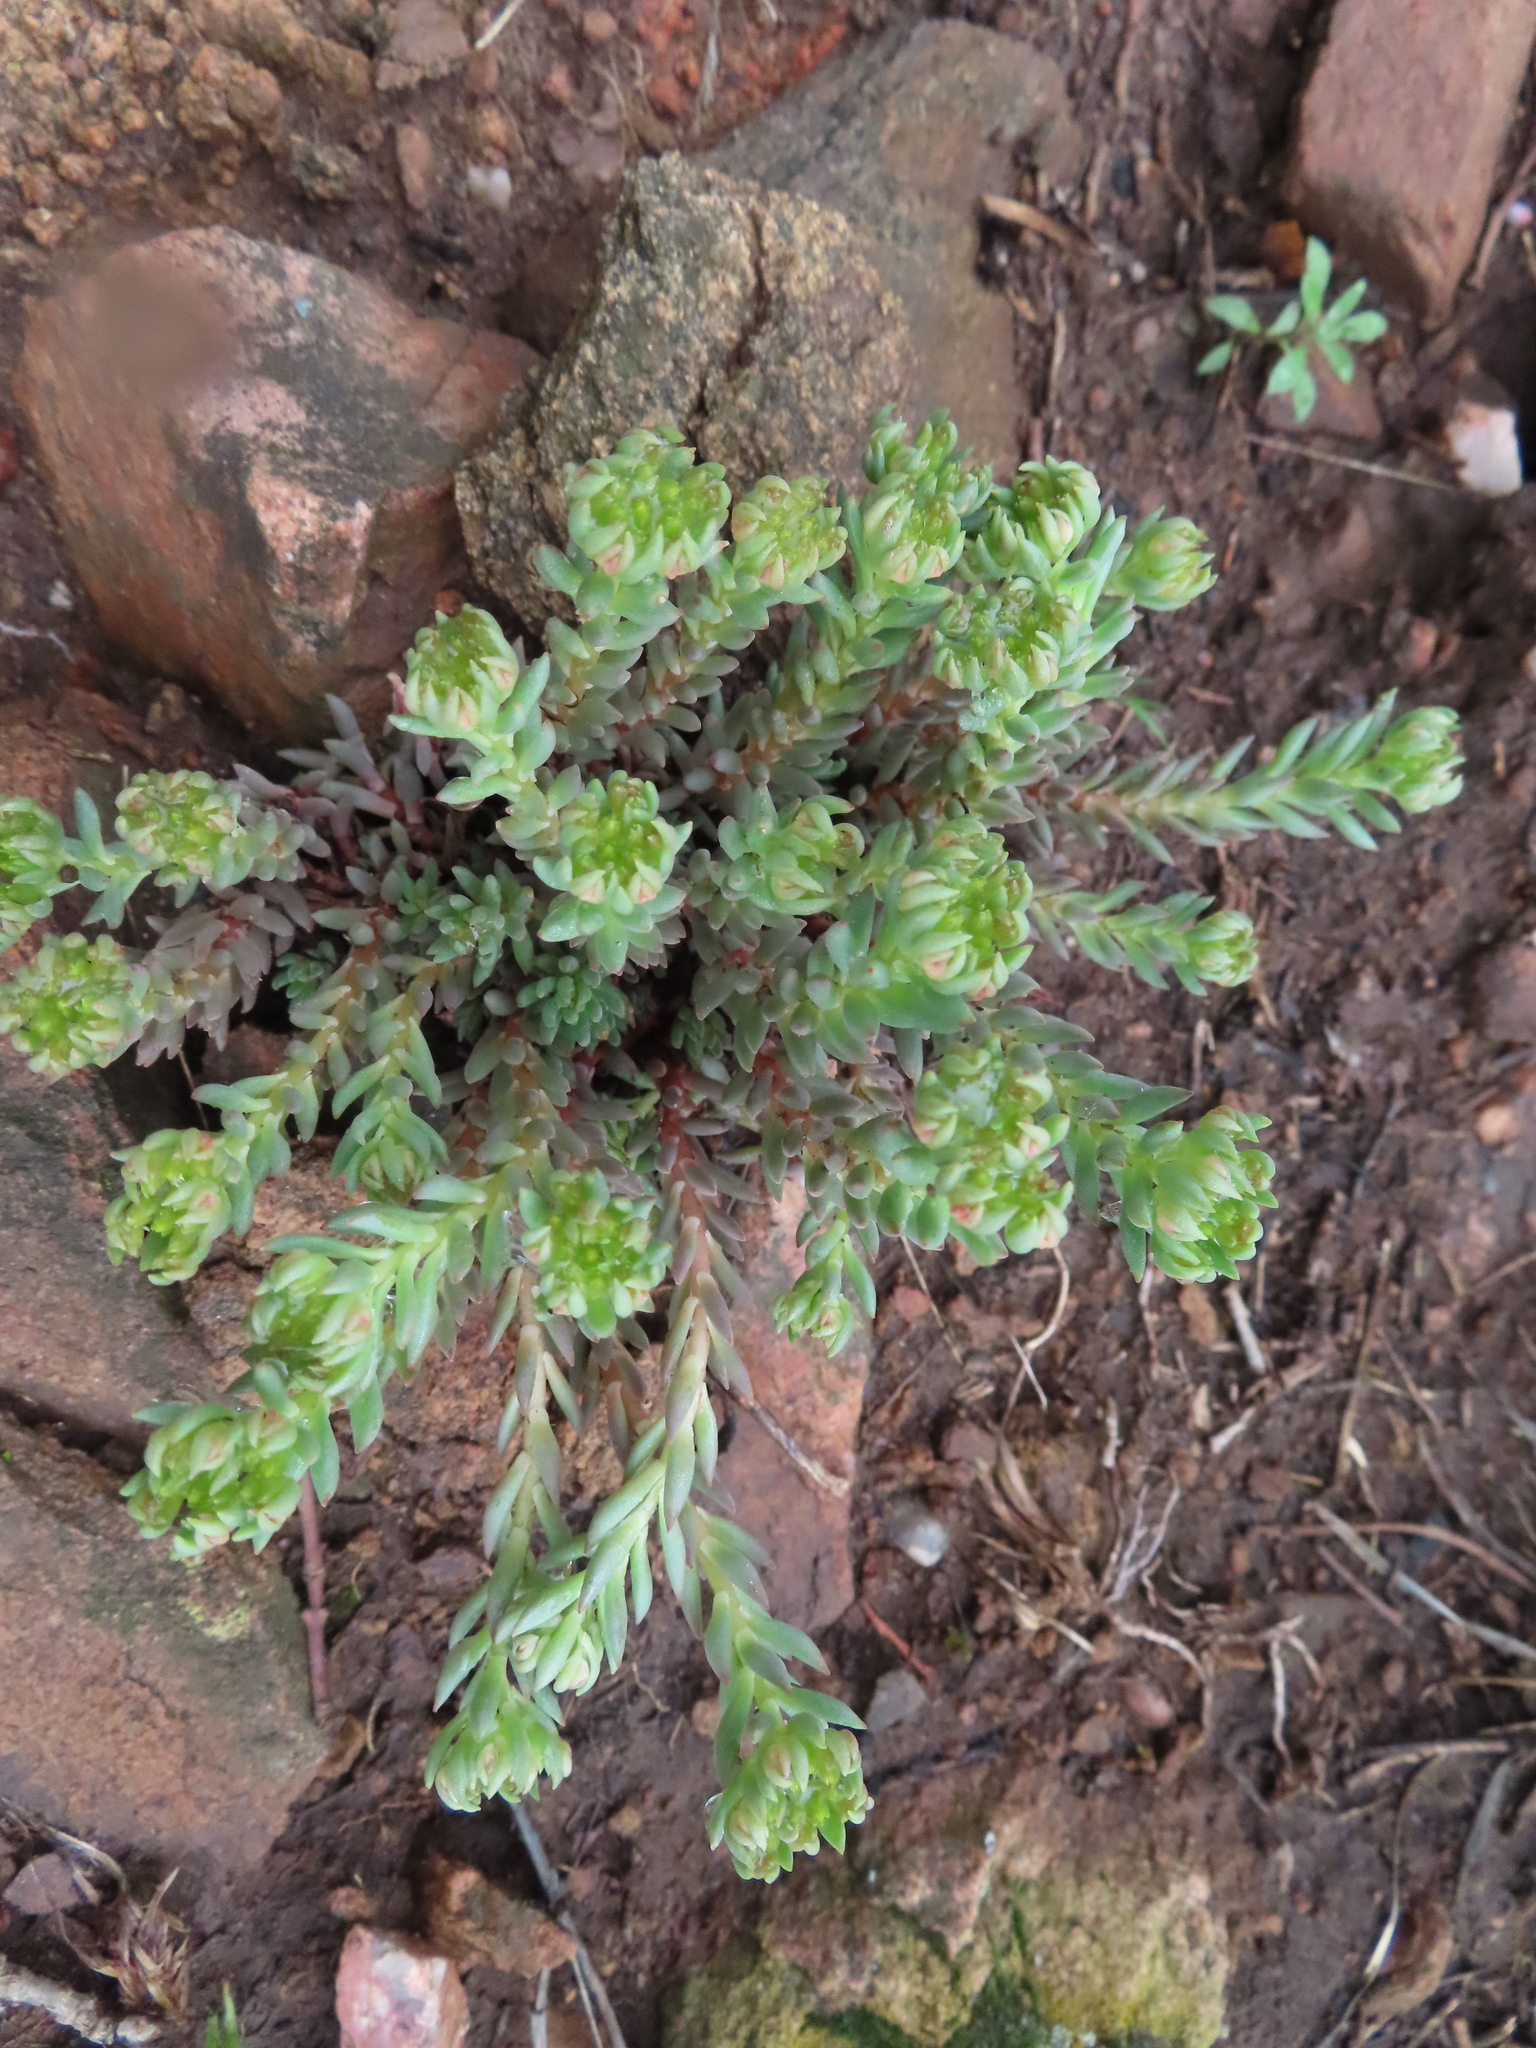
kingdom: Plantae
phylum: Tracheophyta
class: Magnoliopsida
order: Saxifragales
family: Crassulaceae
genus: Sedum
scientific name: Sedum lanceolatum
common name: Common stonecrop
